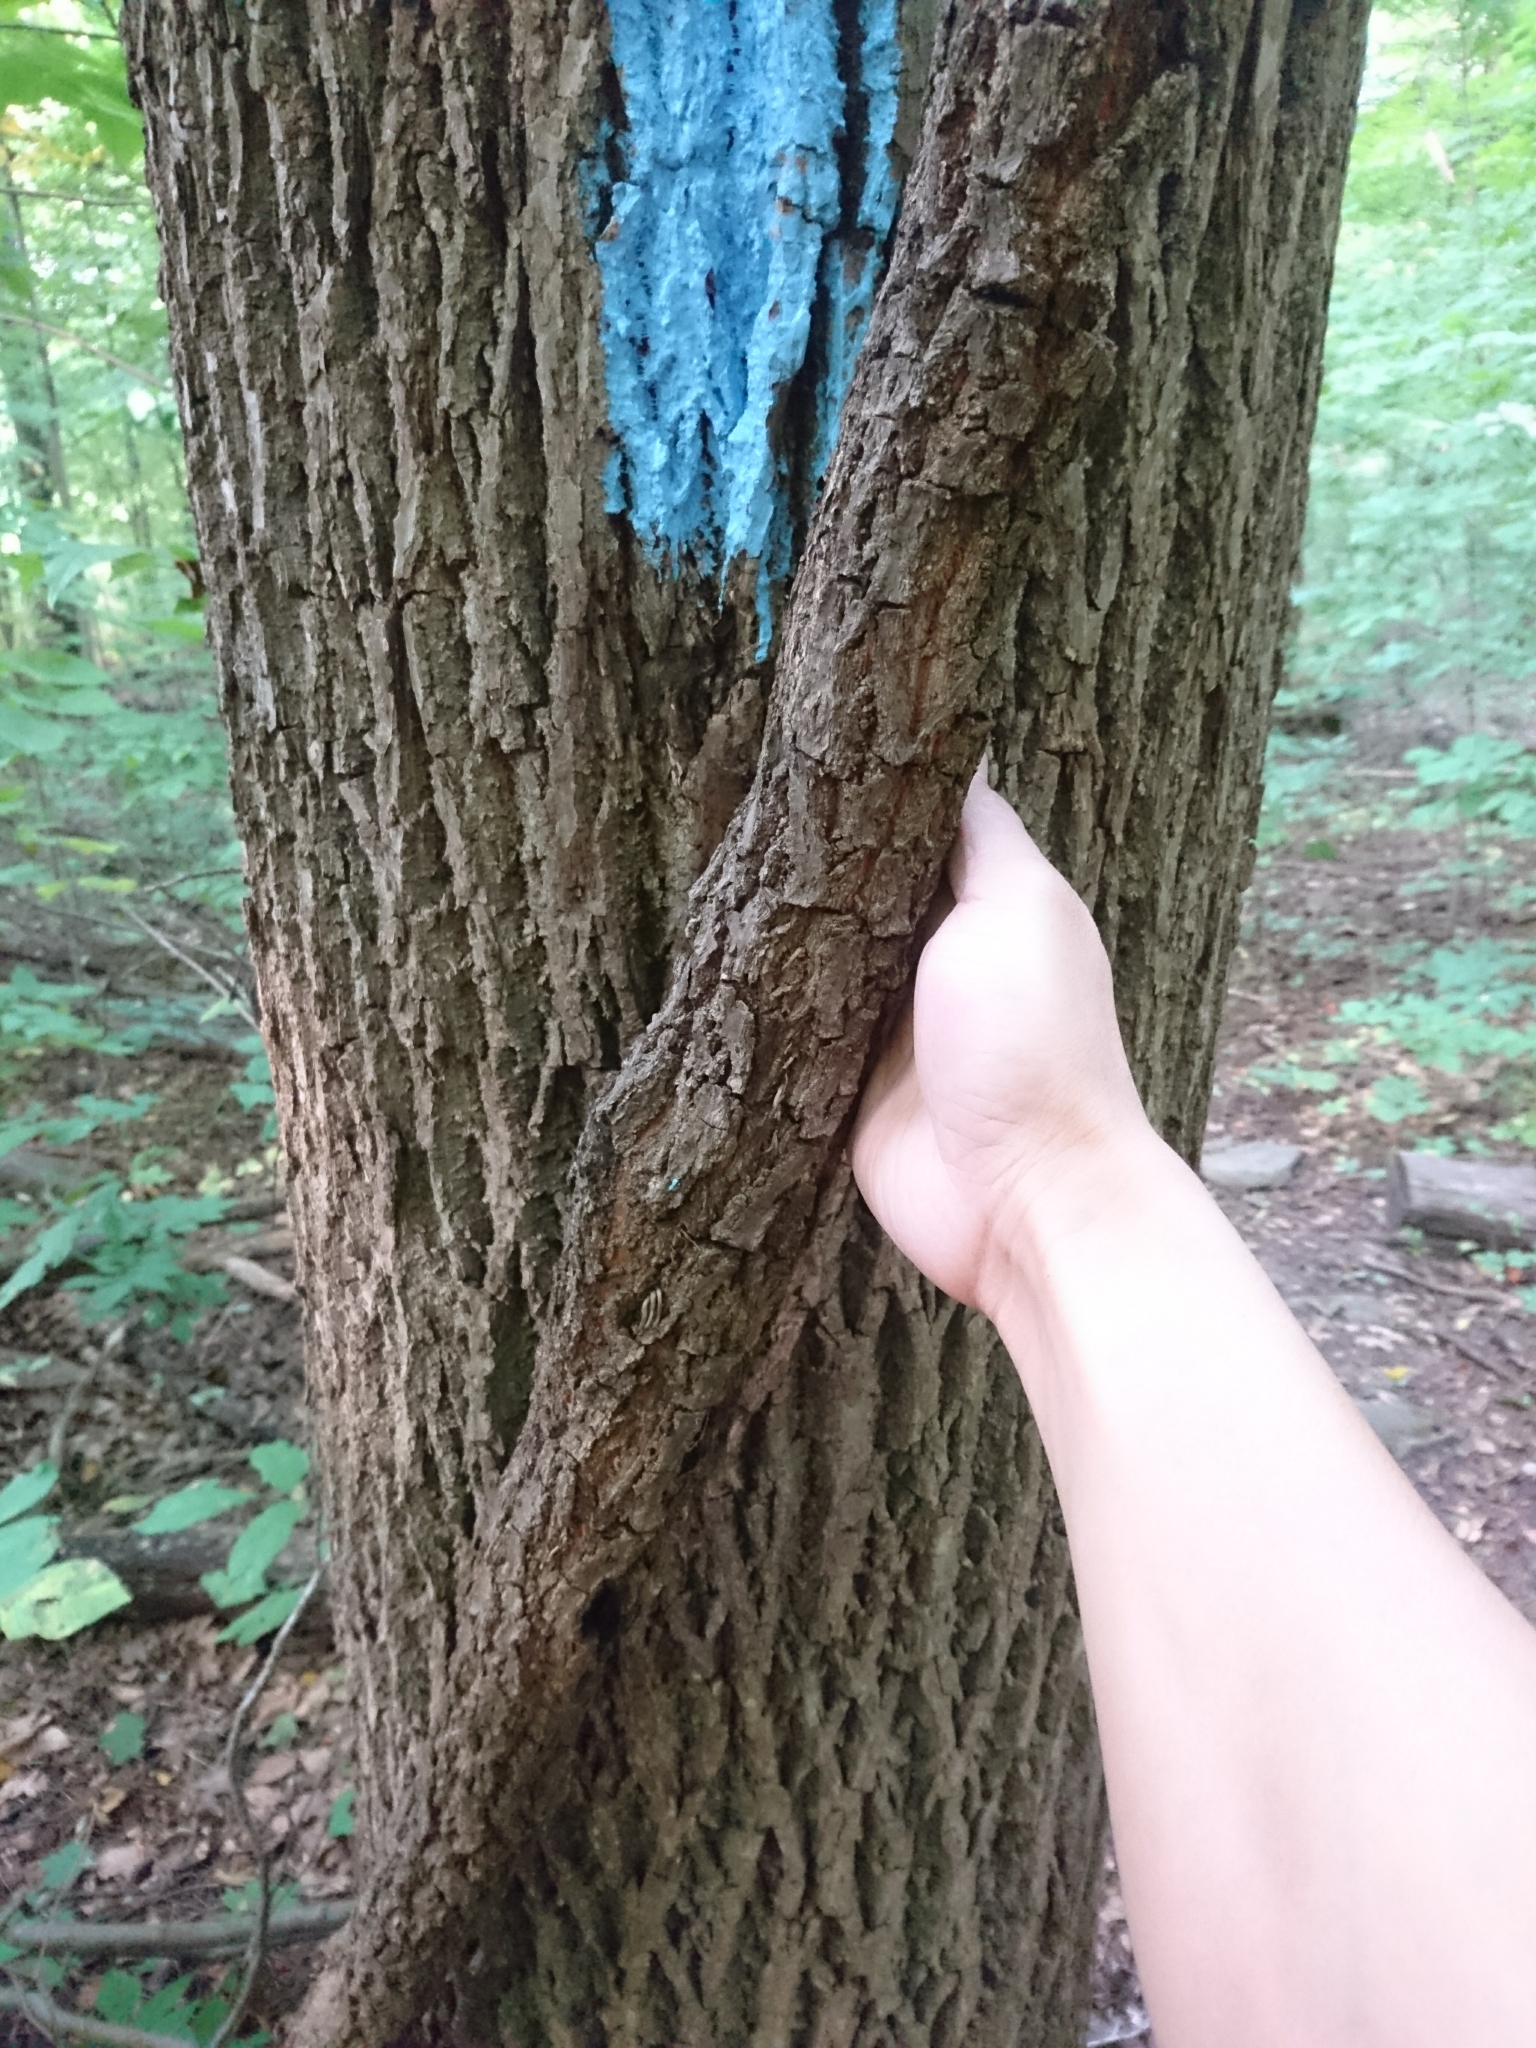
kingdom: Plantae
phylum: Tracheophyta
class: Magnoliopsida
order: Fagales
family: Juglandaceae
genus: Juglans
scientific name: Juglans nigra
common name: Black walnut
